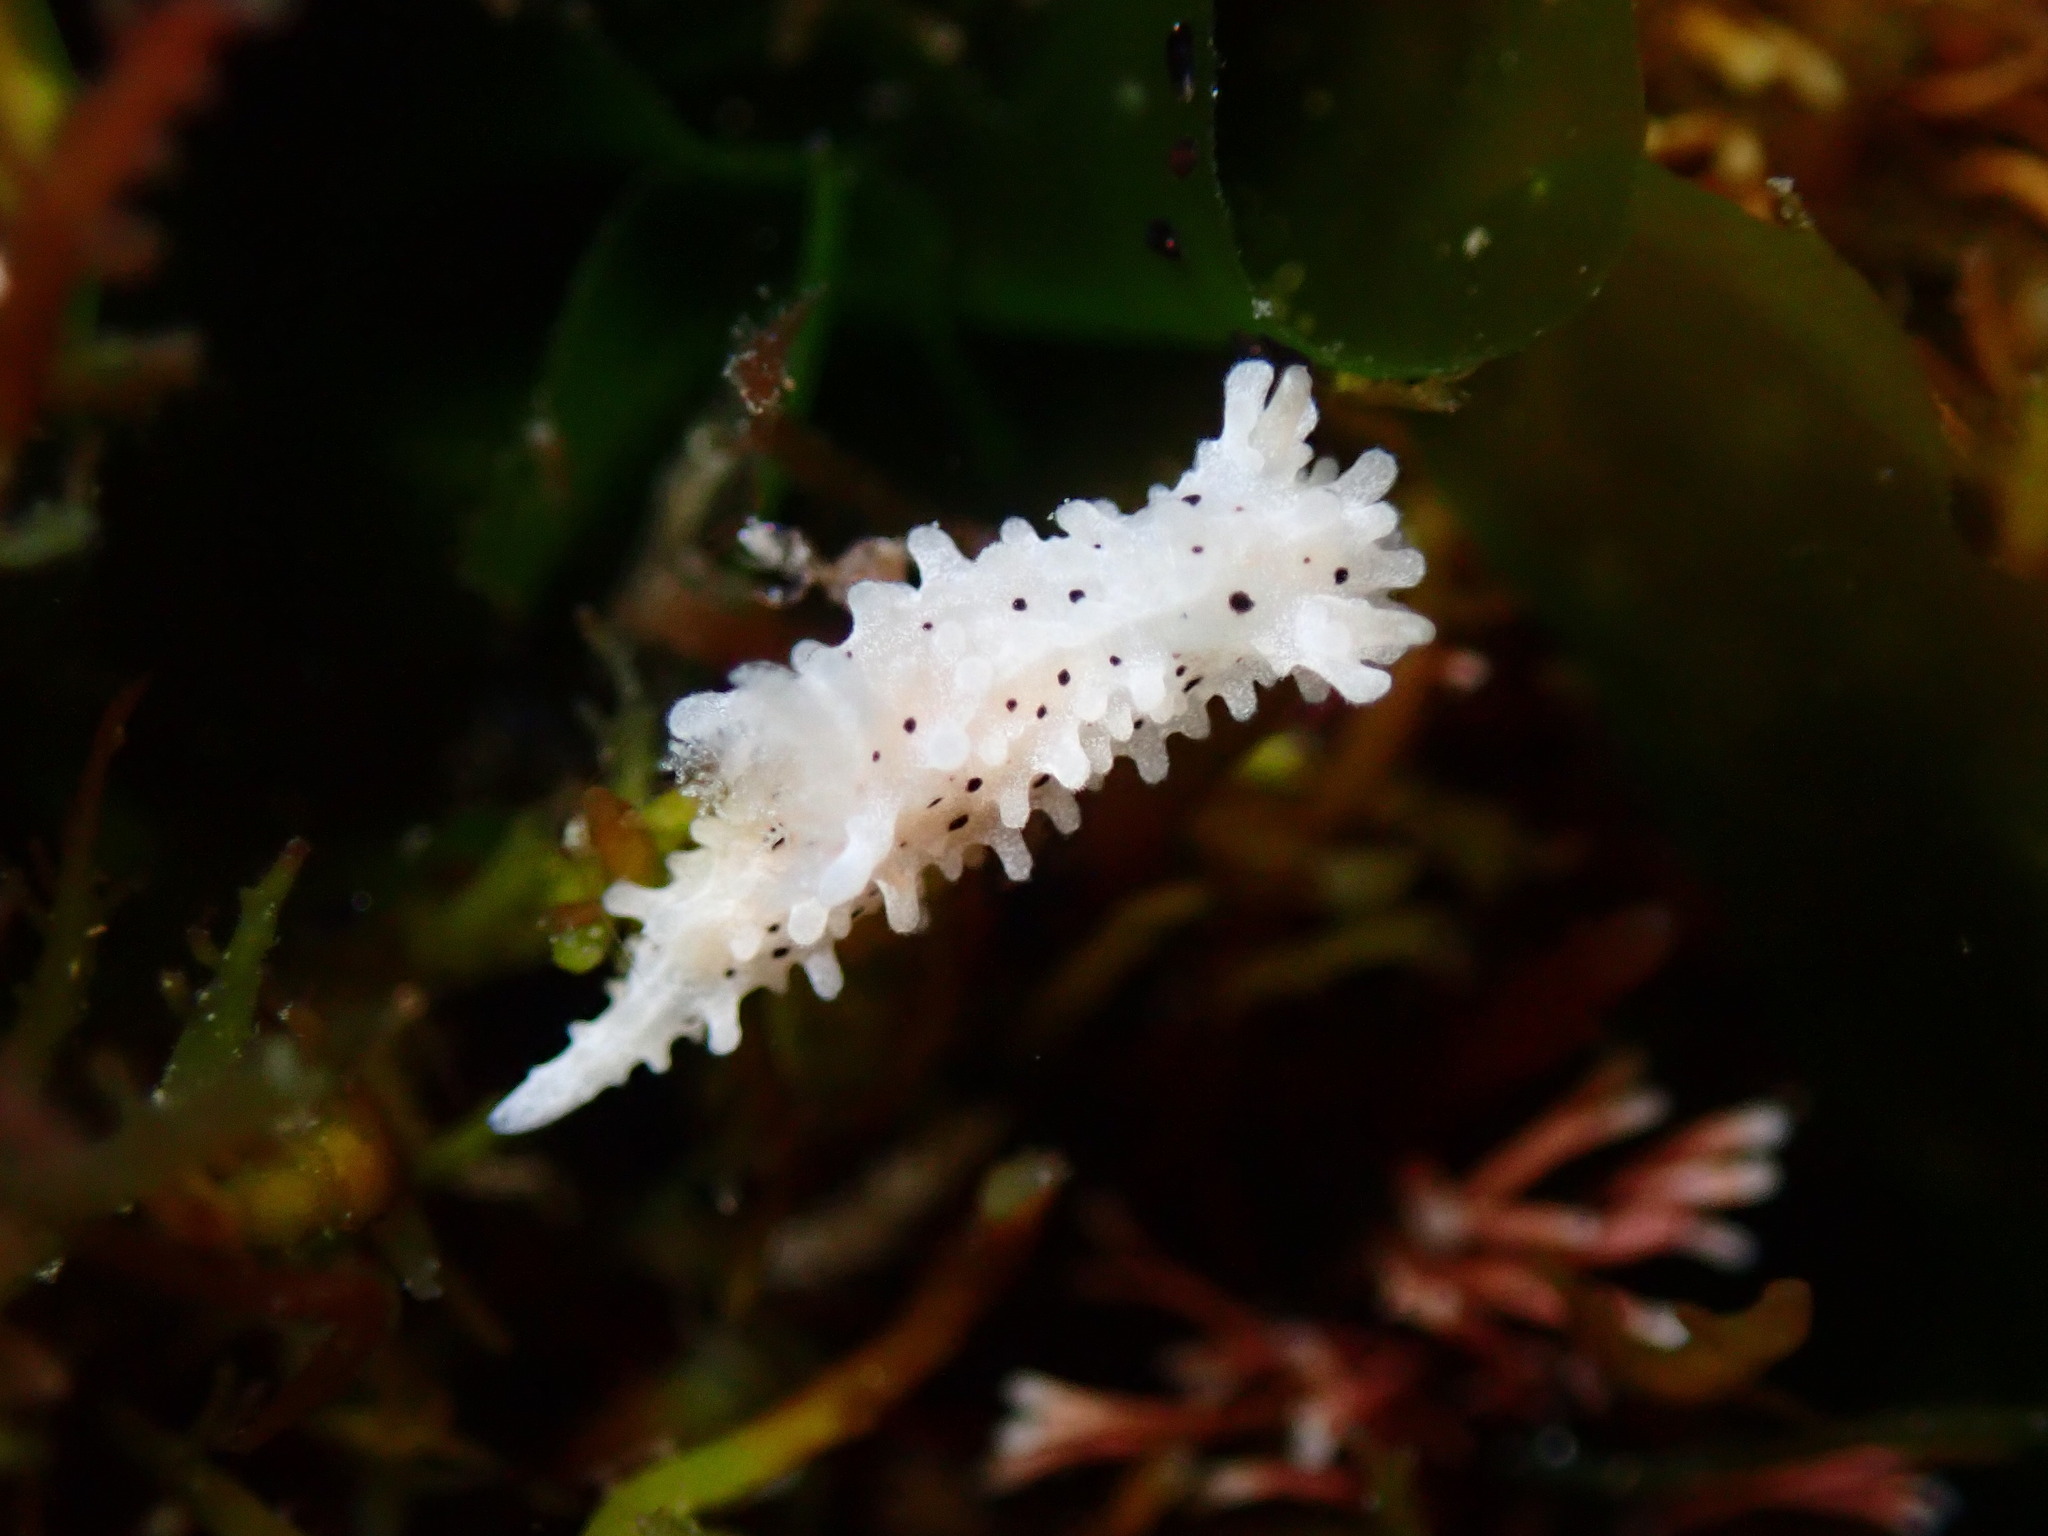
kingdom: Animalia
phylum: Mollusca
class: Gastropoda
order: Nudibranchia
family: Aegiridae
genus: Aegires
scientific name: Aegires albopunctatus
